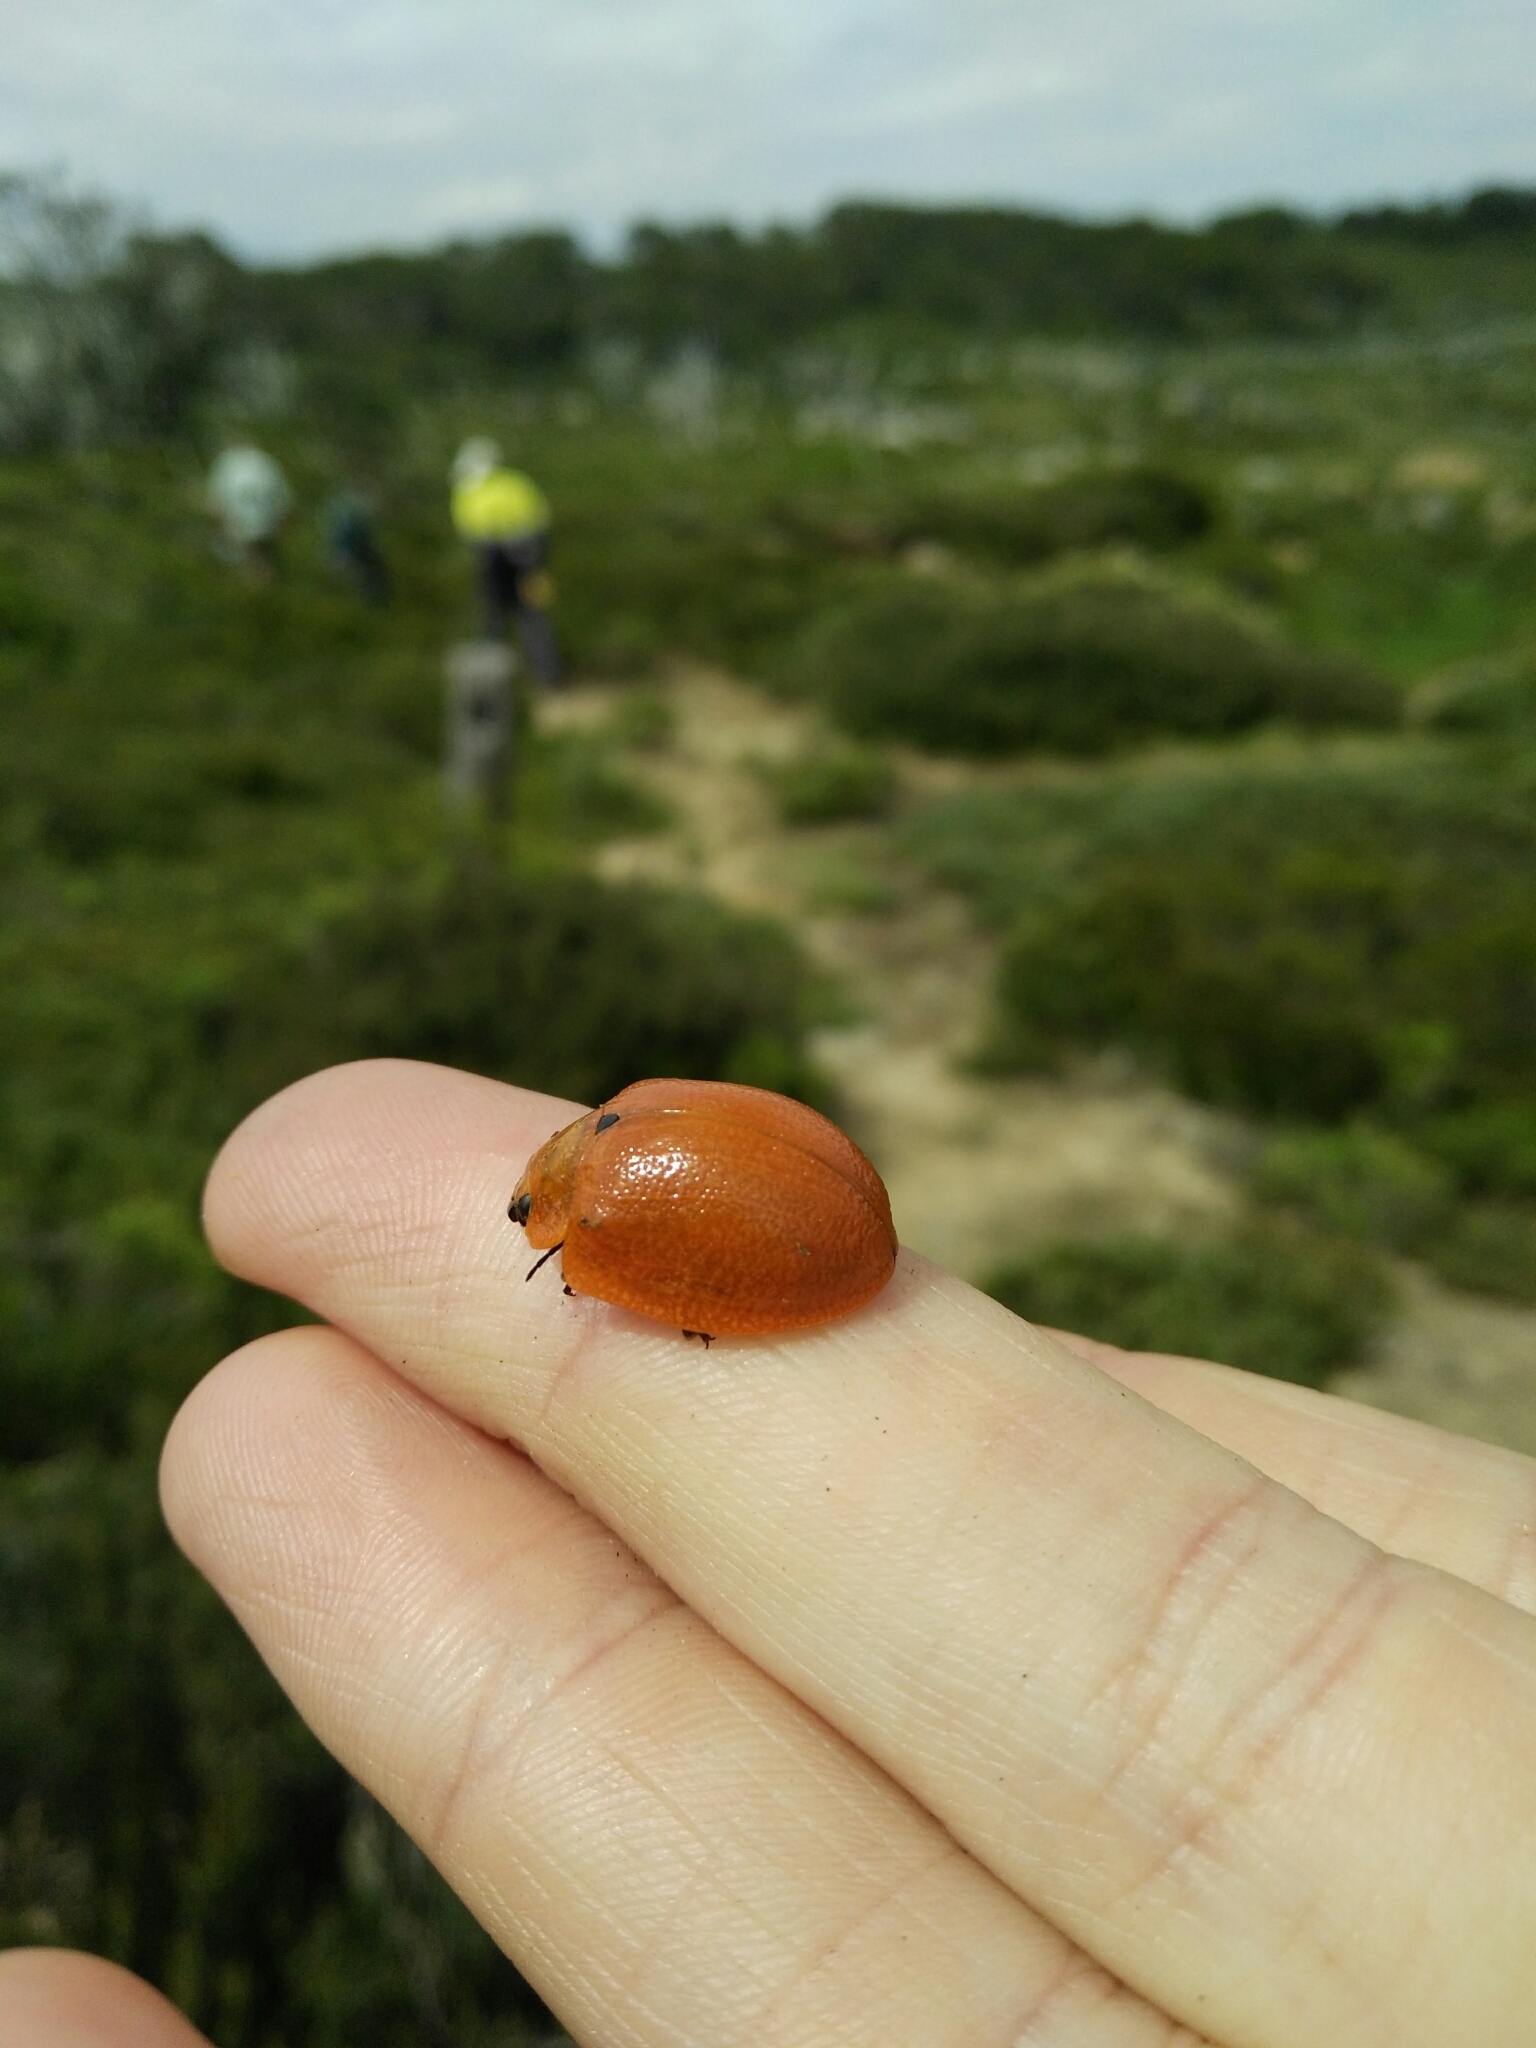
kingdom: Animalia
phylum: Arthropoda
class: Insecta
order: Coleoptera
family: Chrysomelidae
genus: Paropsis
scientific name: Paropsis
